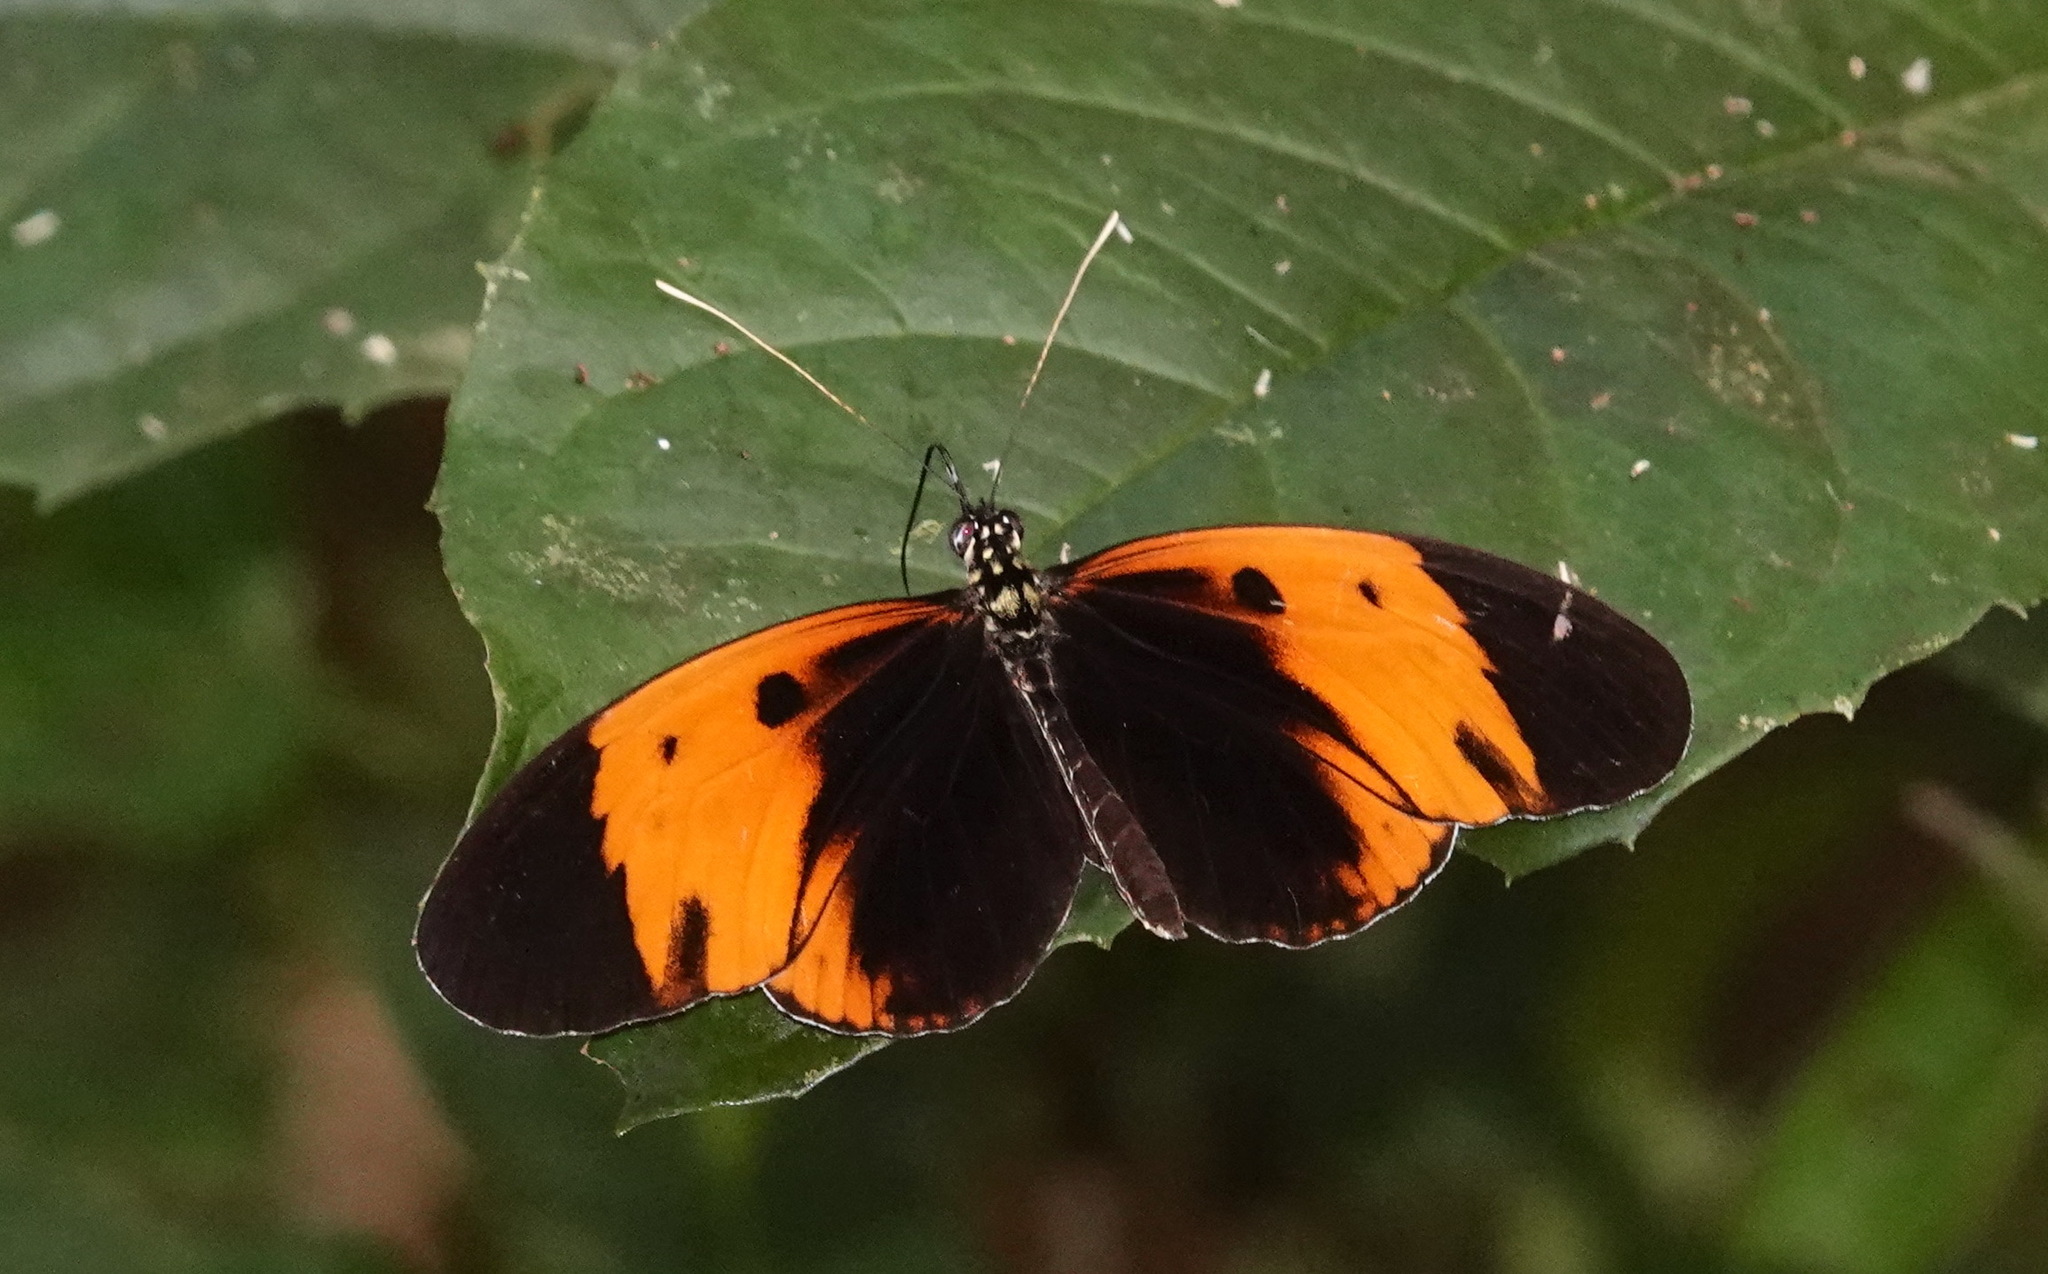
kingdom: Animalia
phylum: Arthropoda
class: Insecta
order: Lepidoptera
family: Nymphalidae
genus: Heliconius
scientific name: Heliconius numatus
